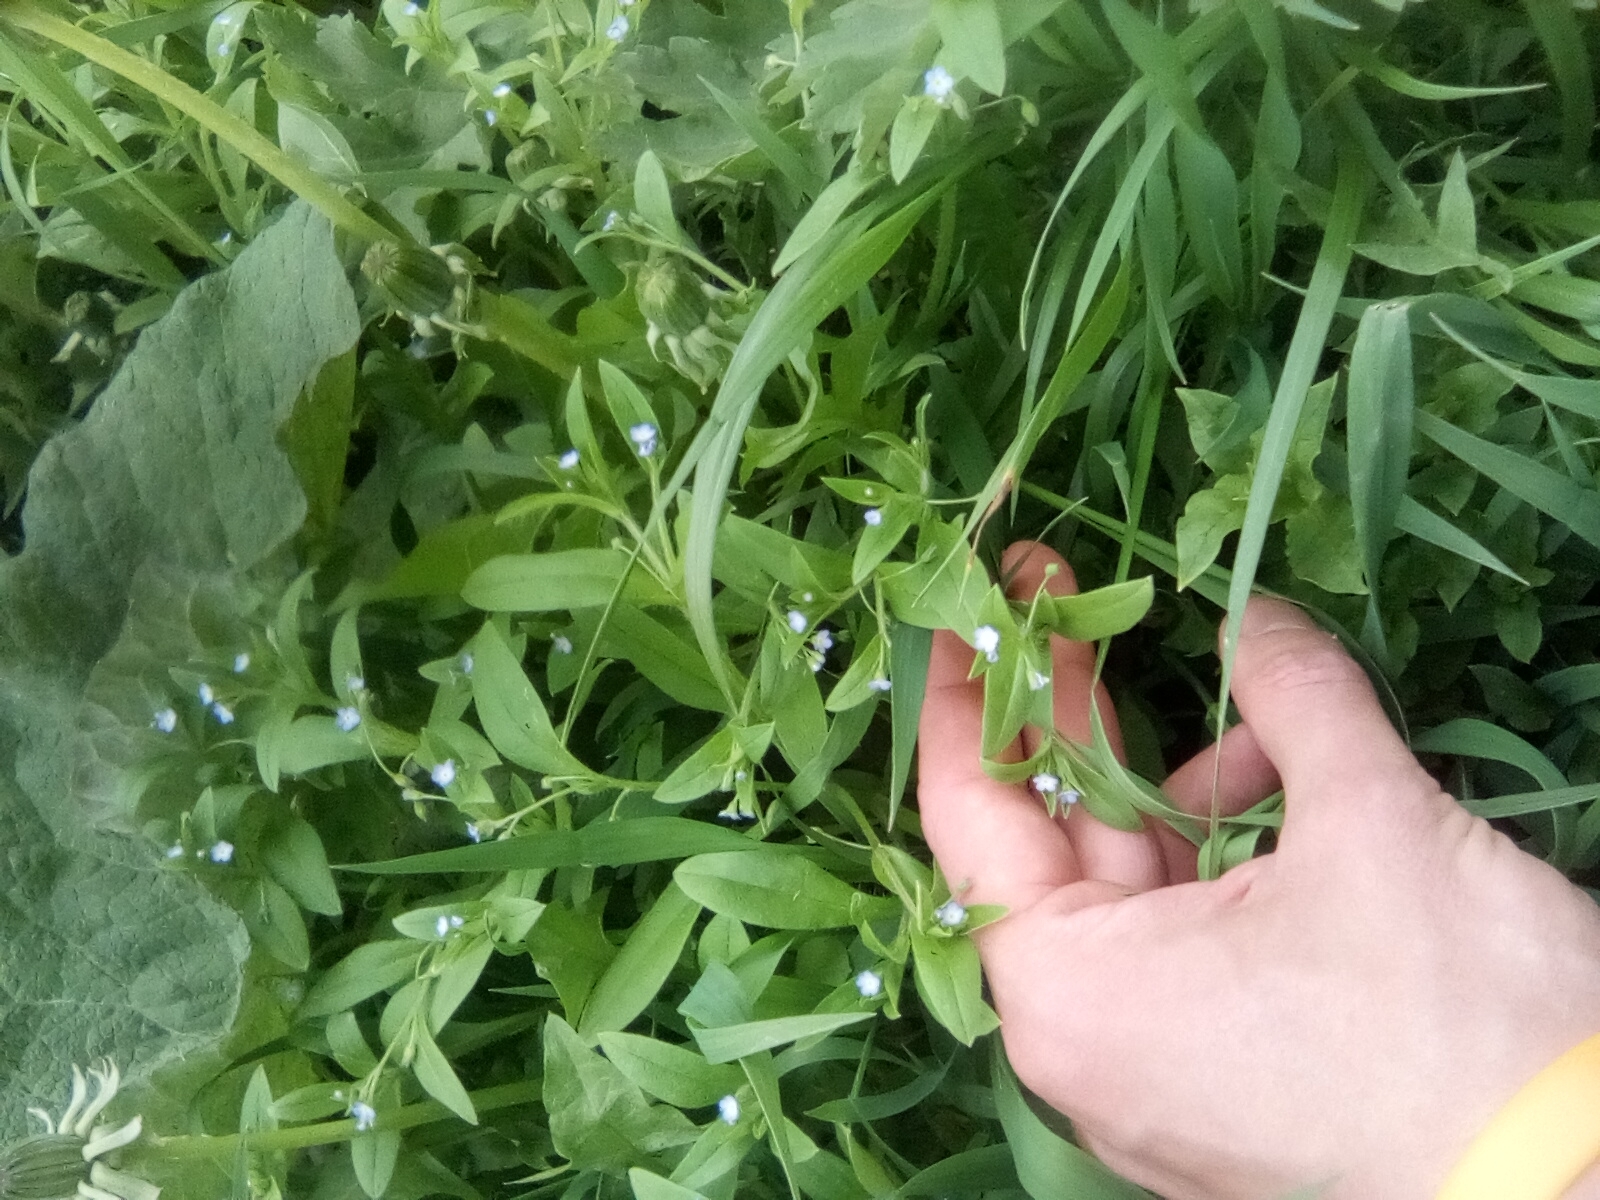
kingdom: Plantae
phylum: Tracheophyta
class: Magnoliopsida
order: Boraginales
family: Boraginaceae
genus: Myosotis
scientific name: Myosotis sparsiflora
